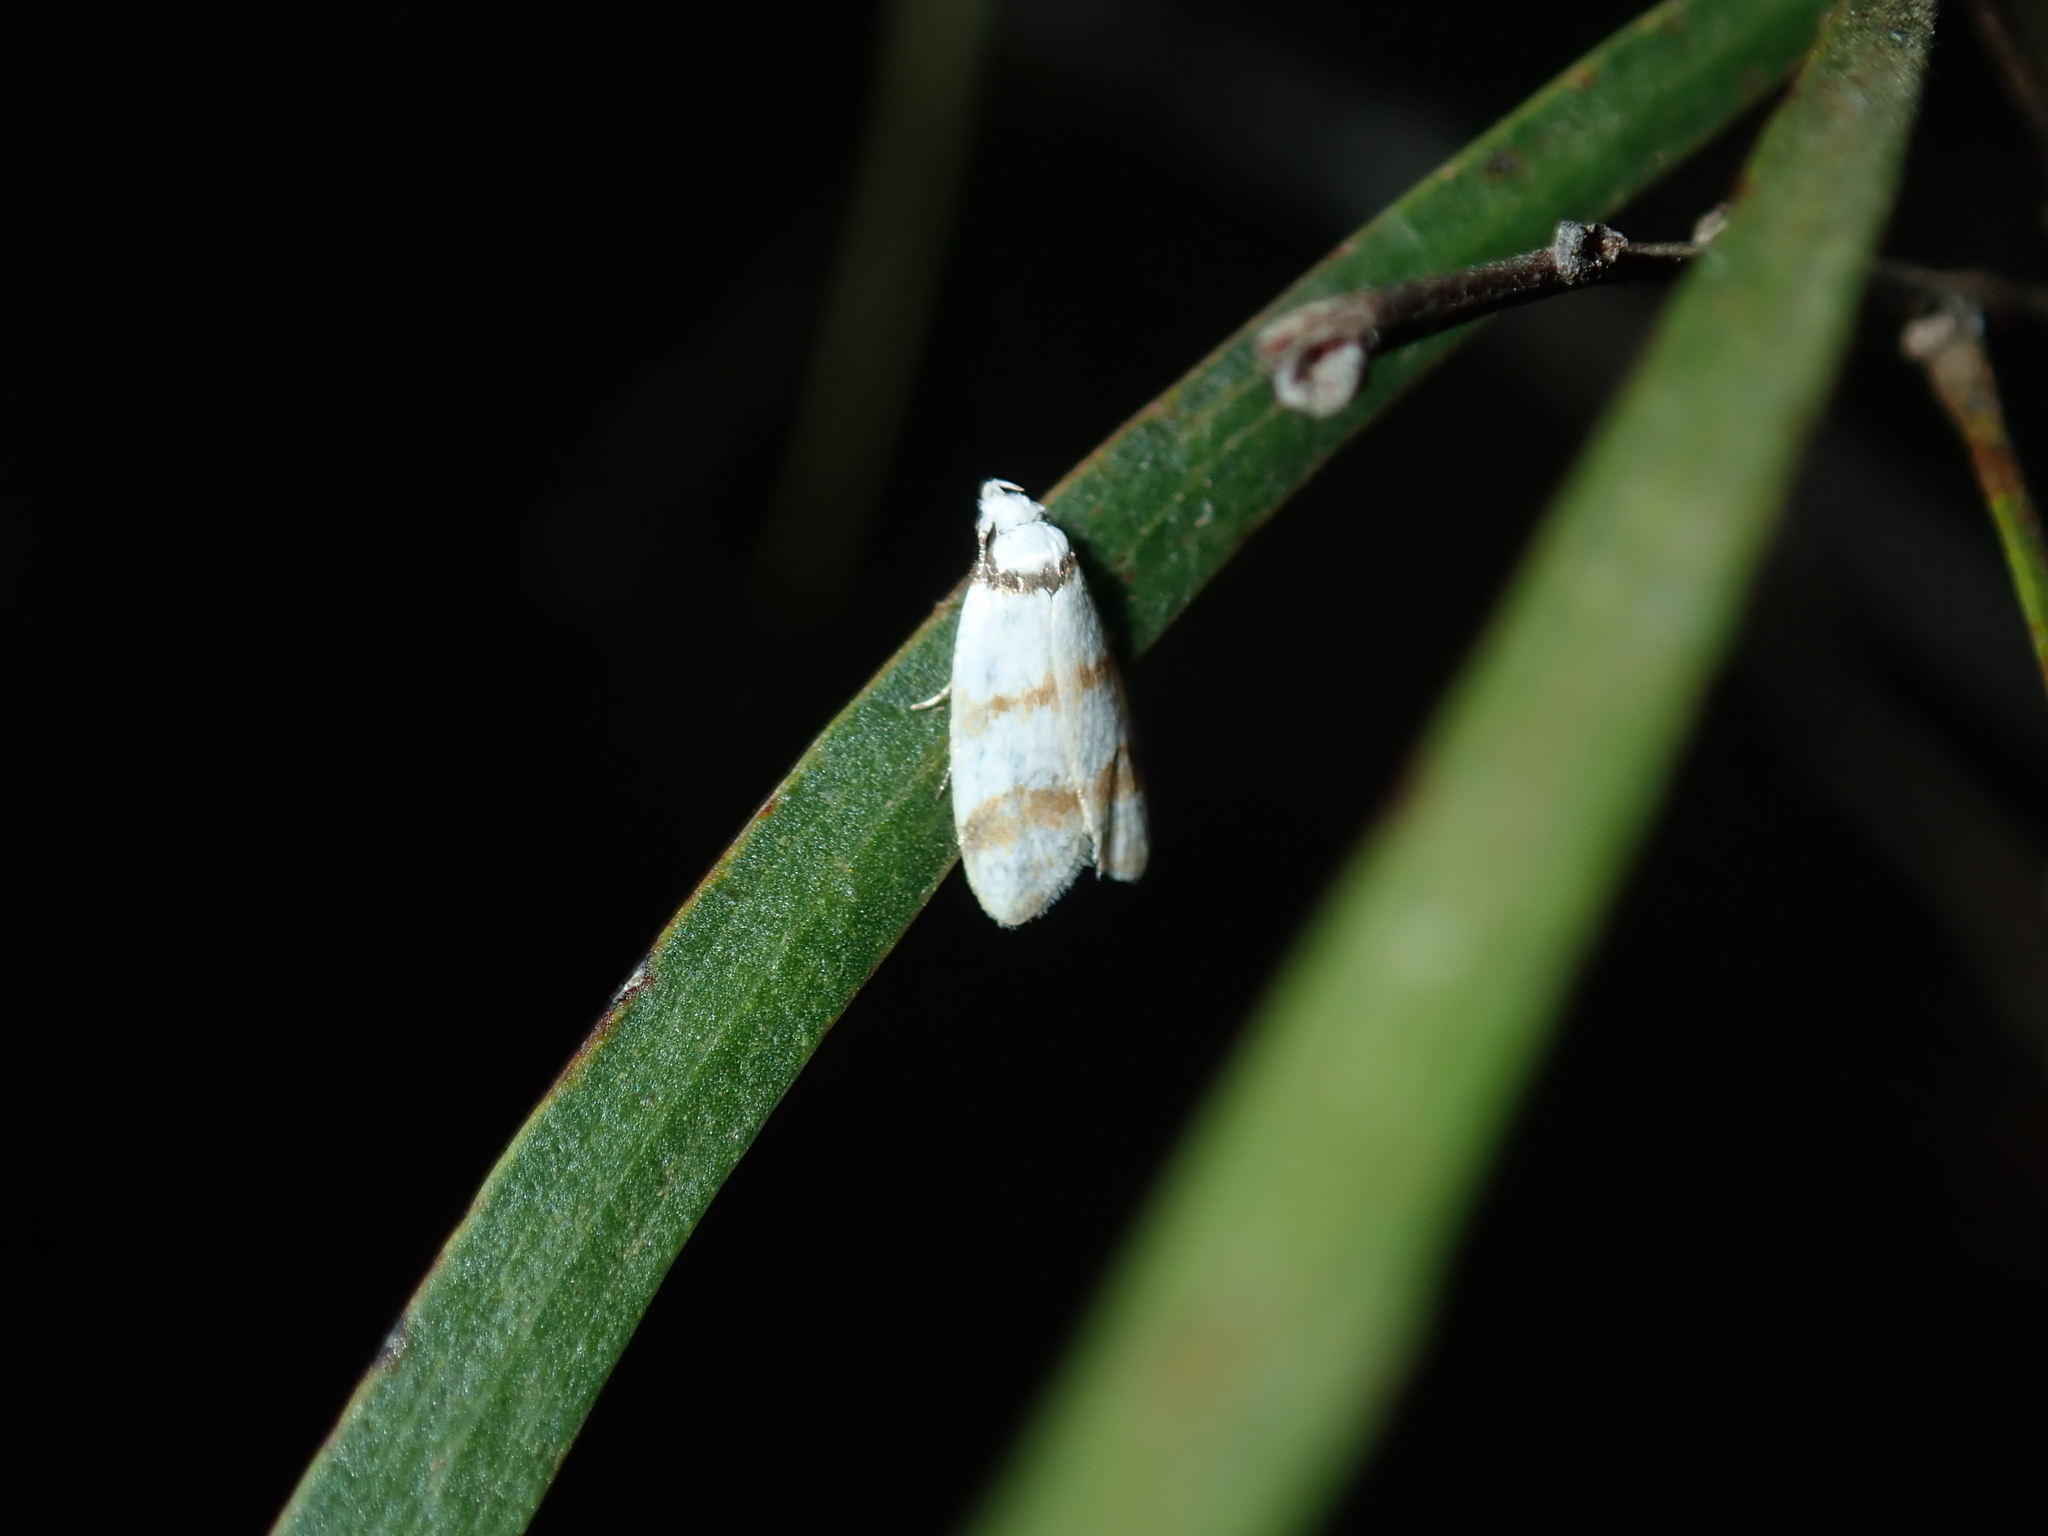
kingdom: Animalia
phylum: Arthropoda
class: Insecta
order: Lepidoptera
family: Oecophoridae
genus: Chezala
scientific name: Chezala brachypepla
